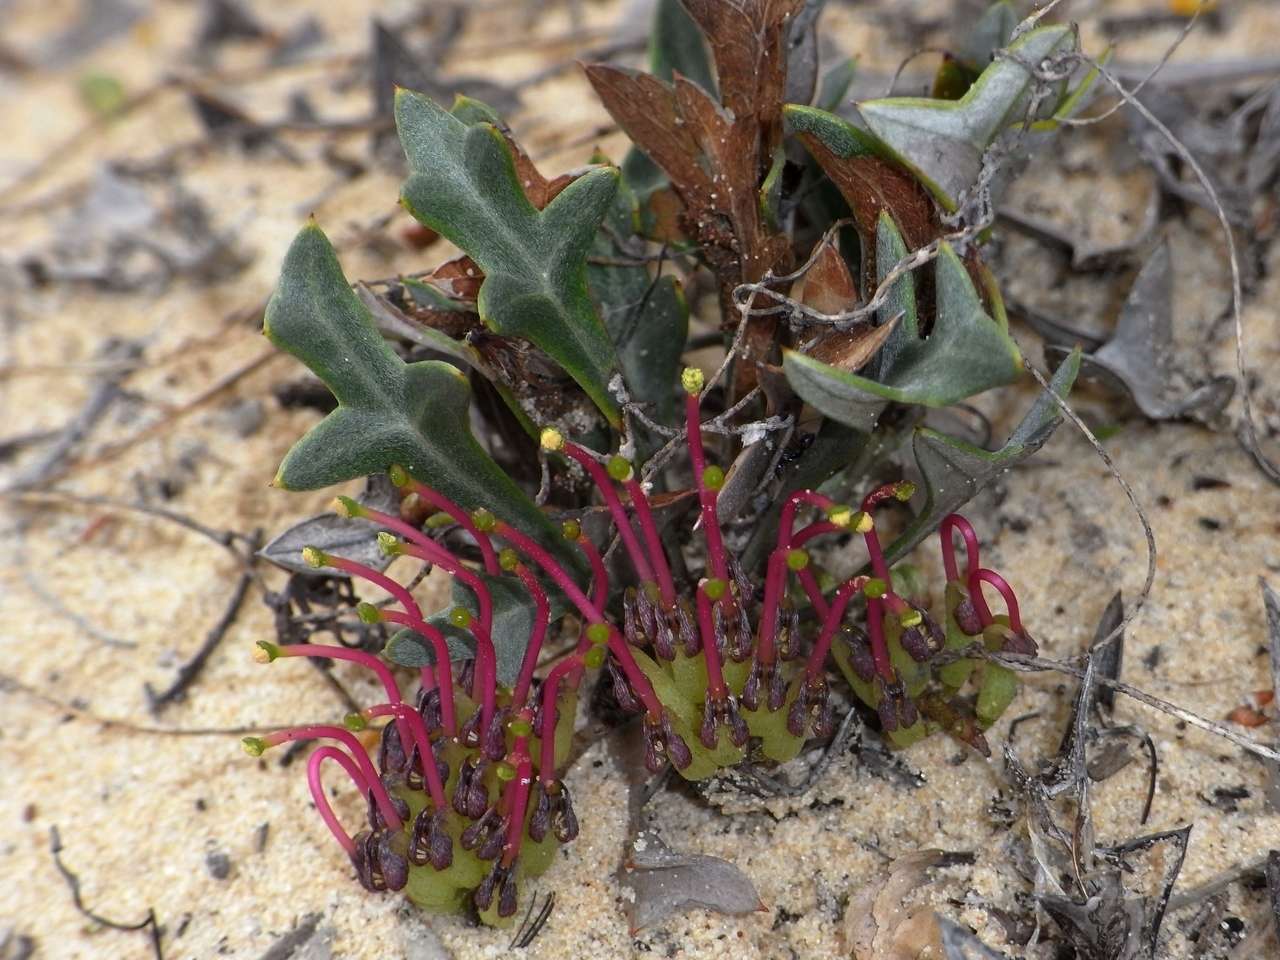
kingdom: Plantae
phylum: Tracheophyta
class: Magnoliopsida
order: Proteales
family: Proteaceae
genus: Grevillea
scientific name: Grevillea ilicifolia
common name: Holly grevillea
